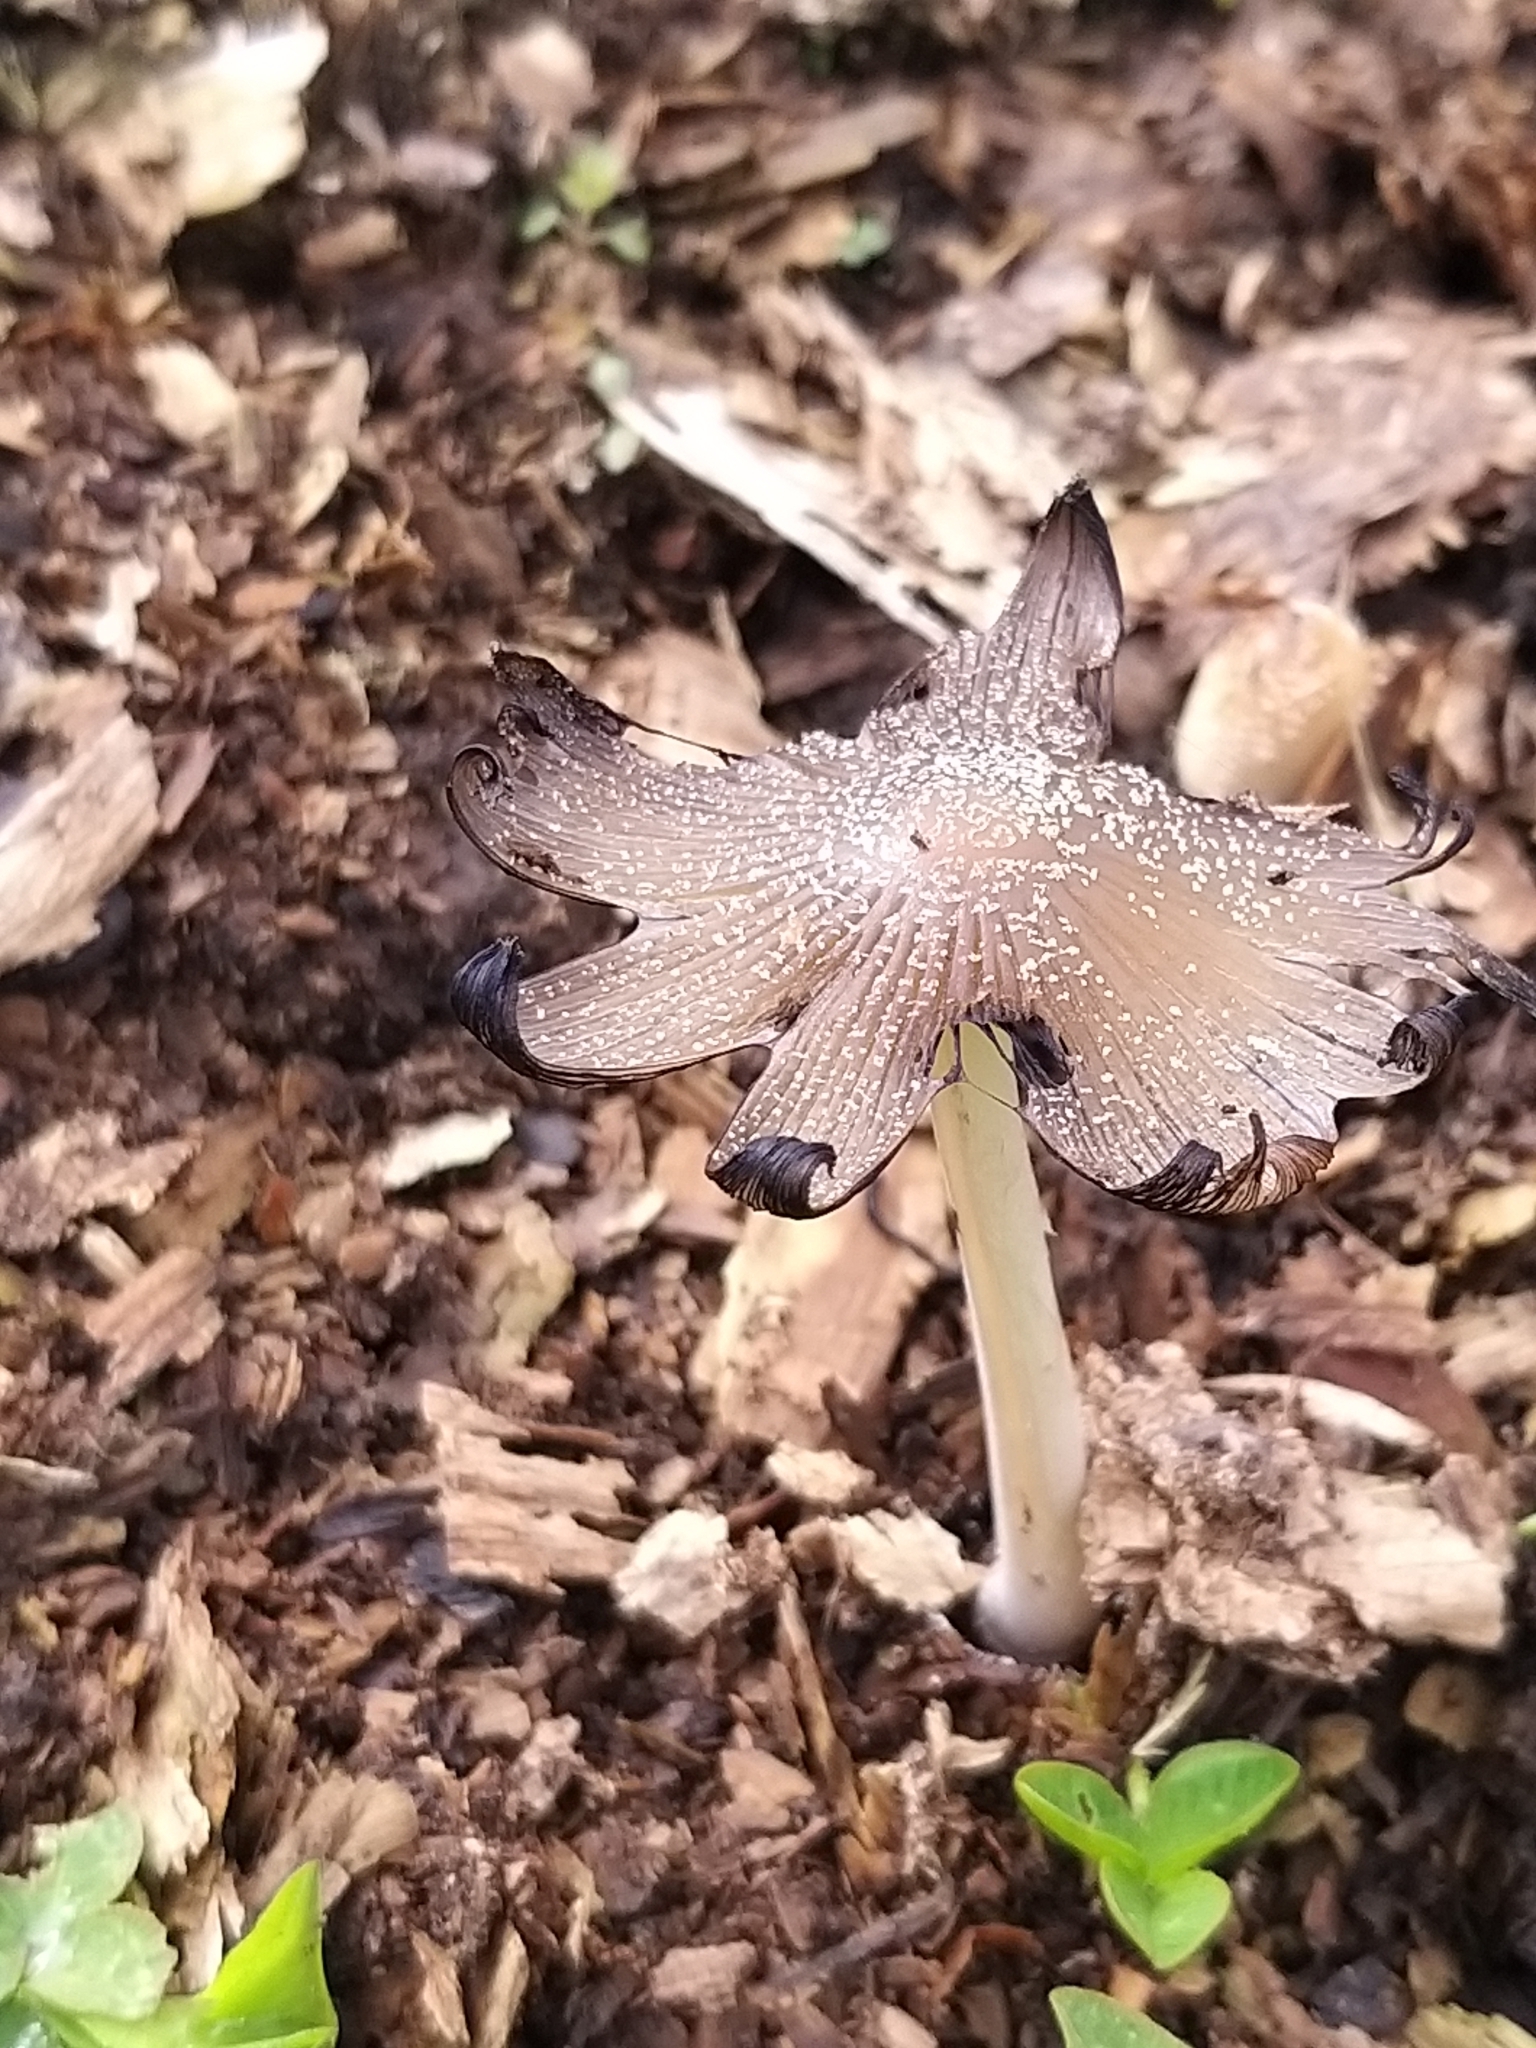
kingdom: Fungi
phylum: Basidiomycota
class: Agaricomycetes
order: Agaricales
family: Psathyrellaceae
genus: Coprinellus
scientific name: Coprinellus micaceus
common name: Glistening ink-cap
